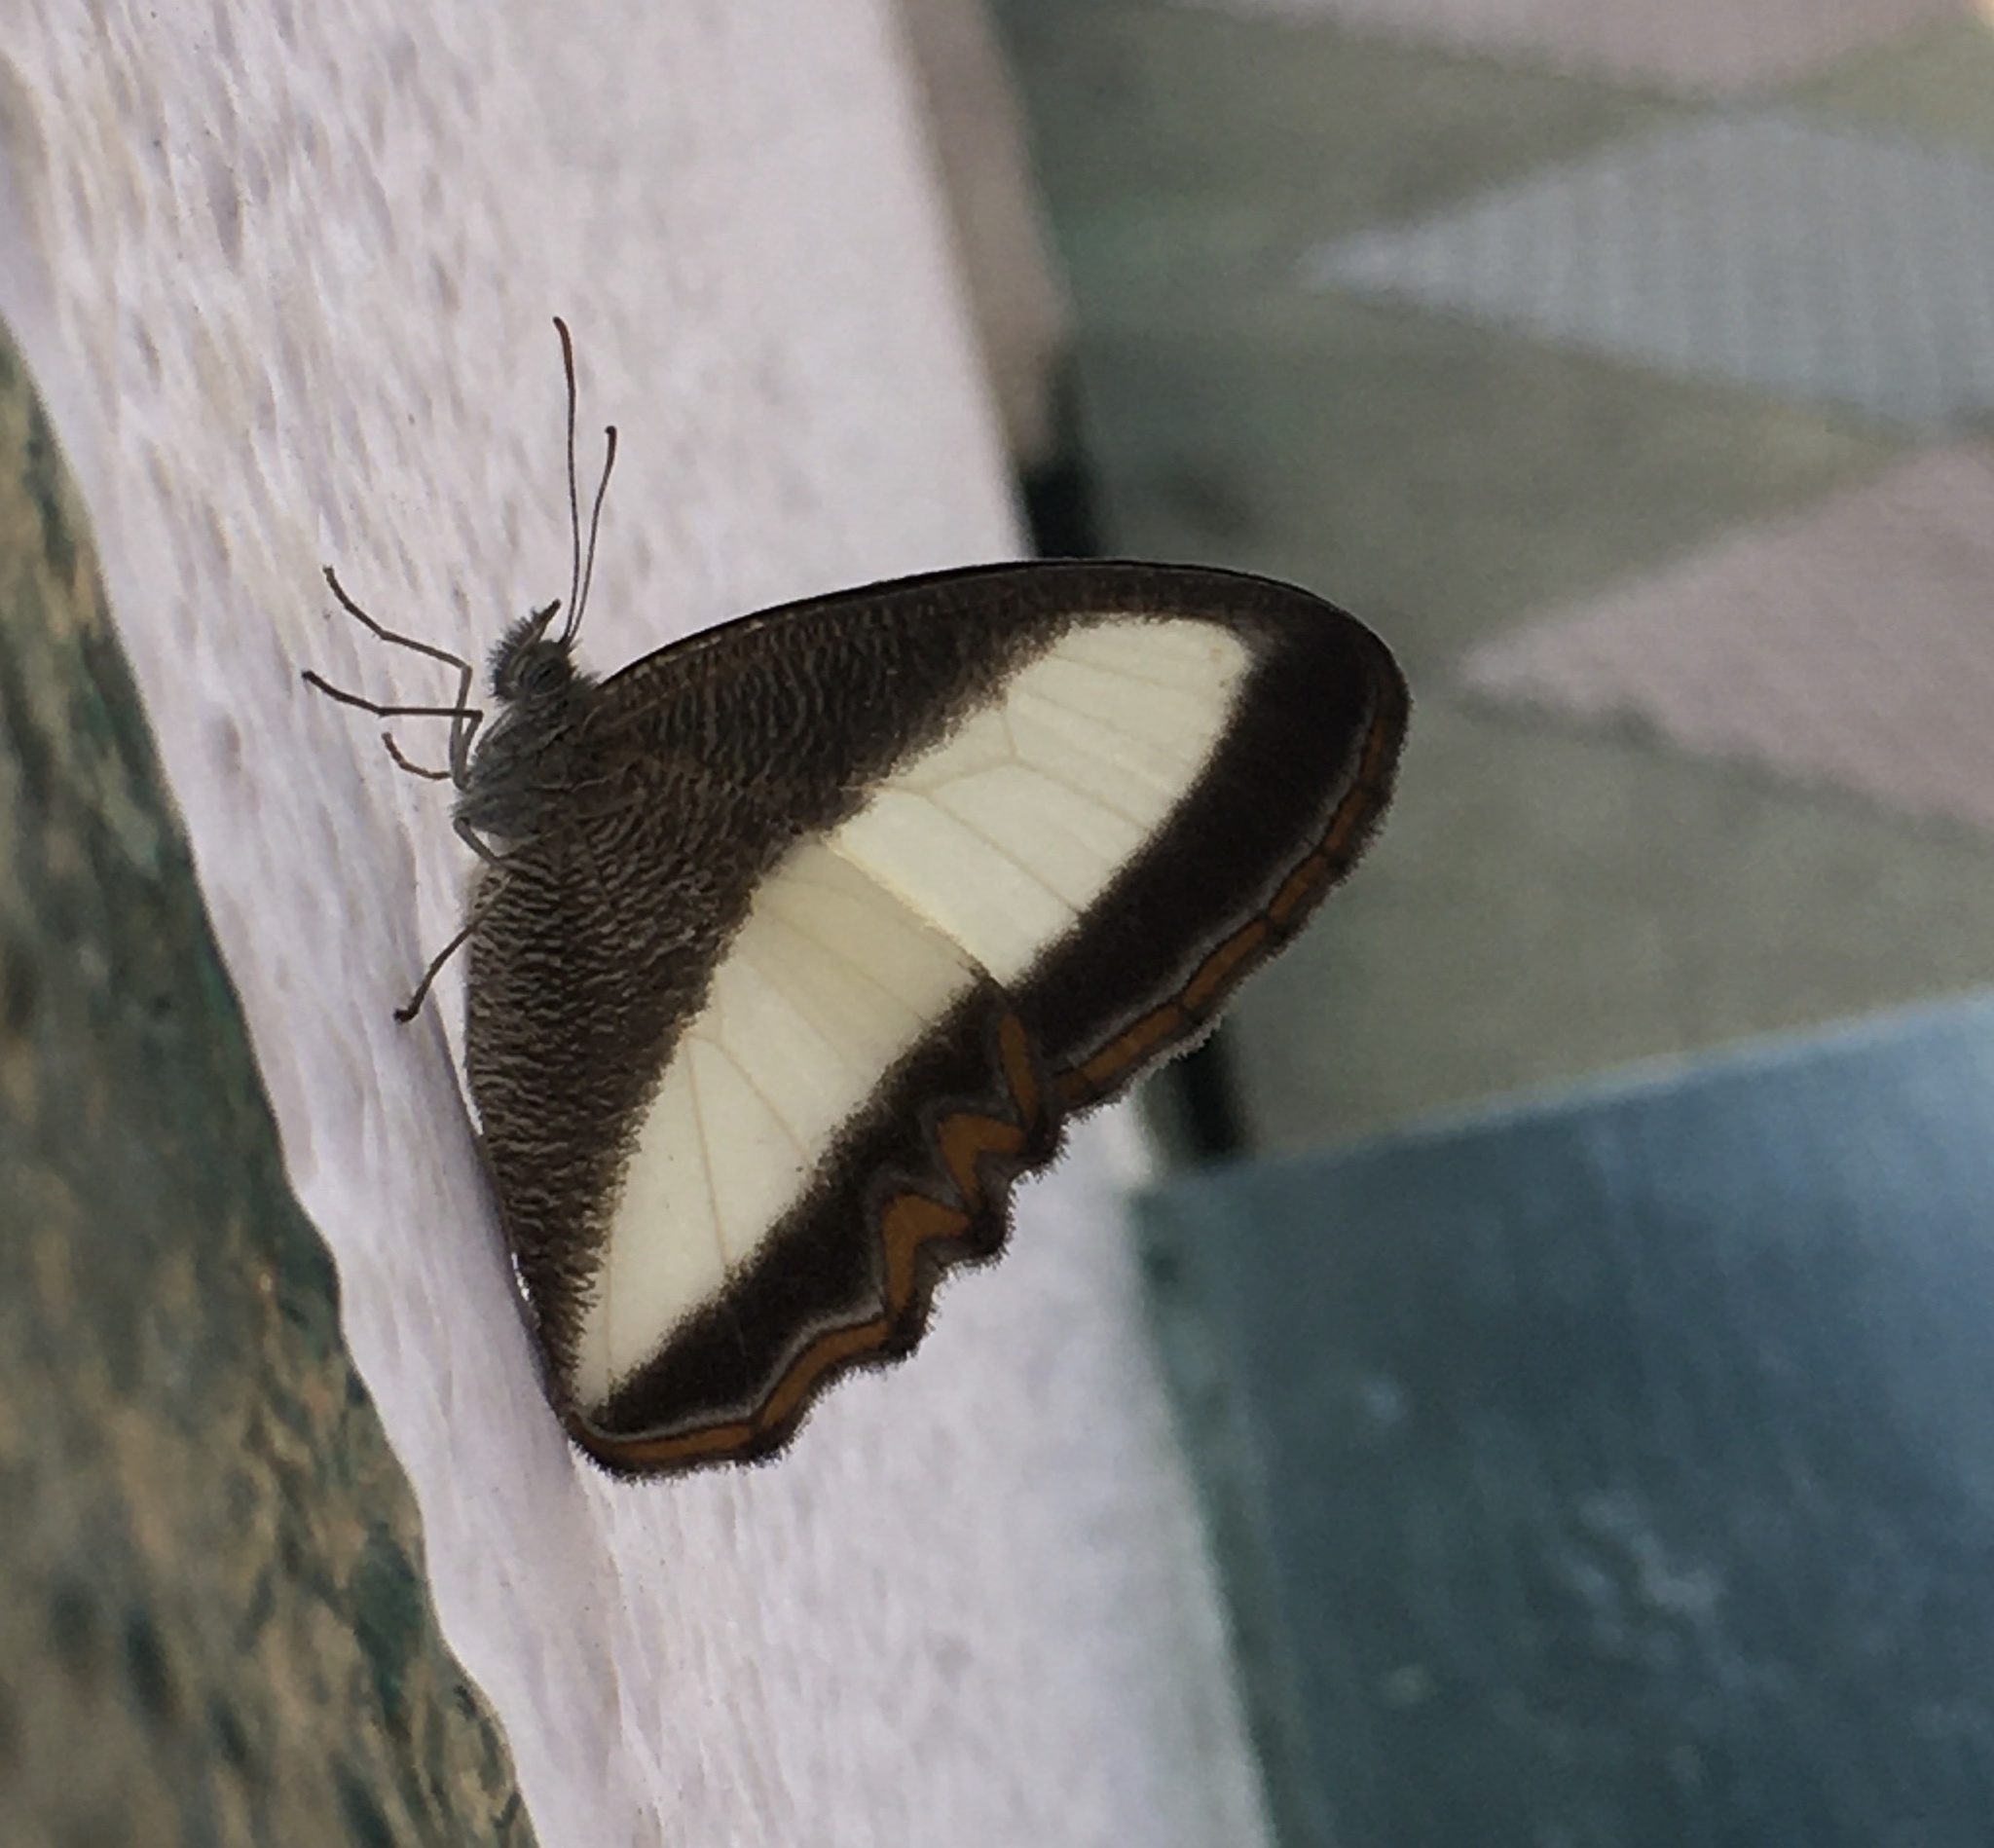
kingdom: Animalia
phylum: Arthropoda
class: Insecta
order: Lepidoptera
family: Nymphalidae
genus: Oressinoma
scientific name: Oressinoma typhla
